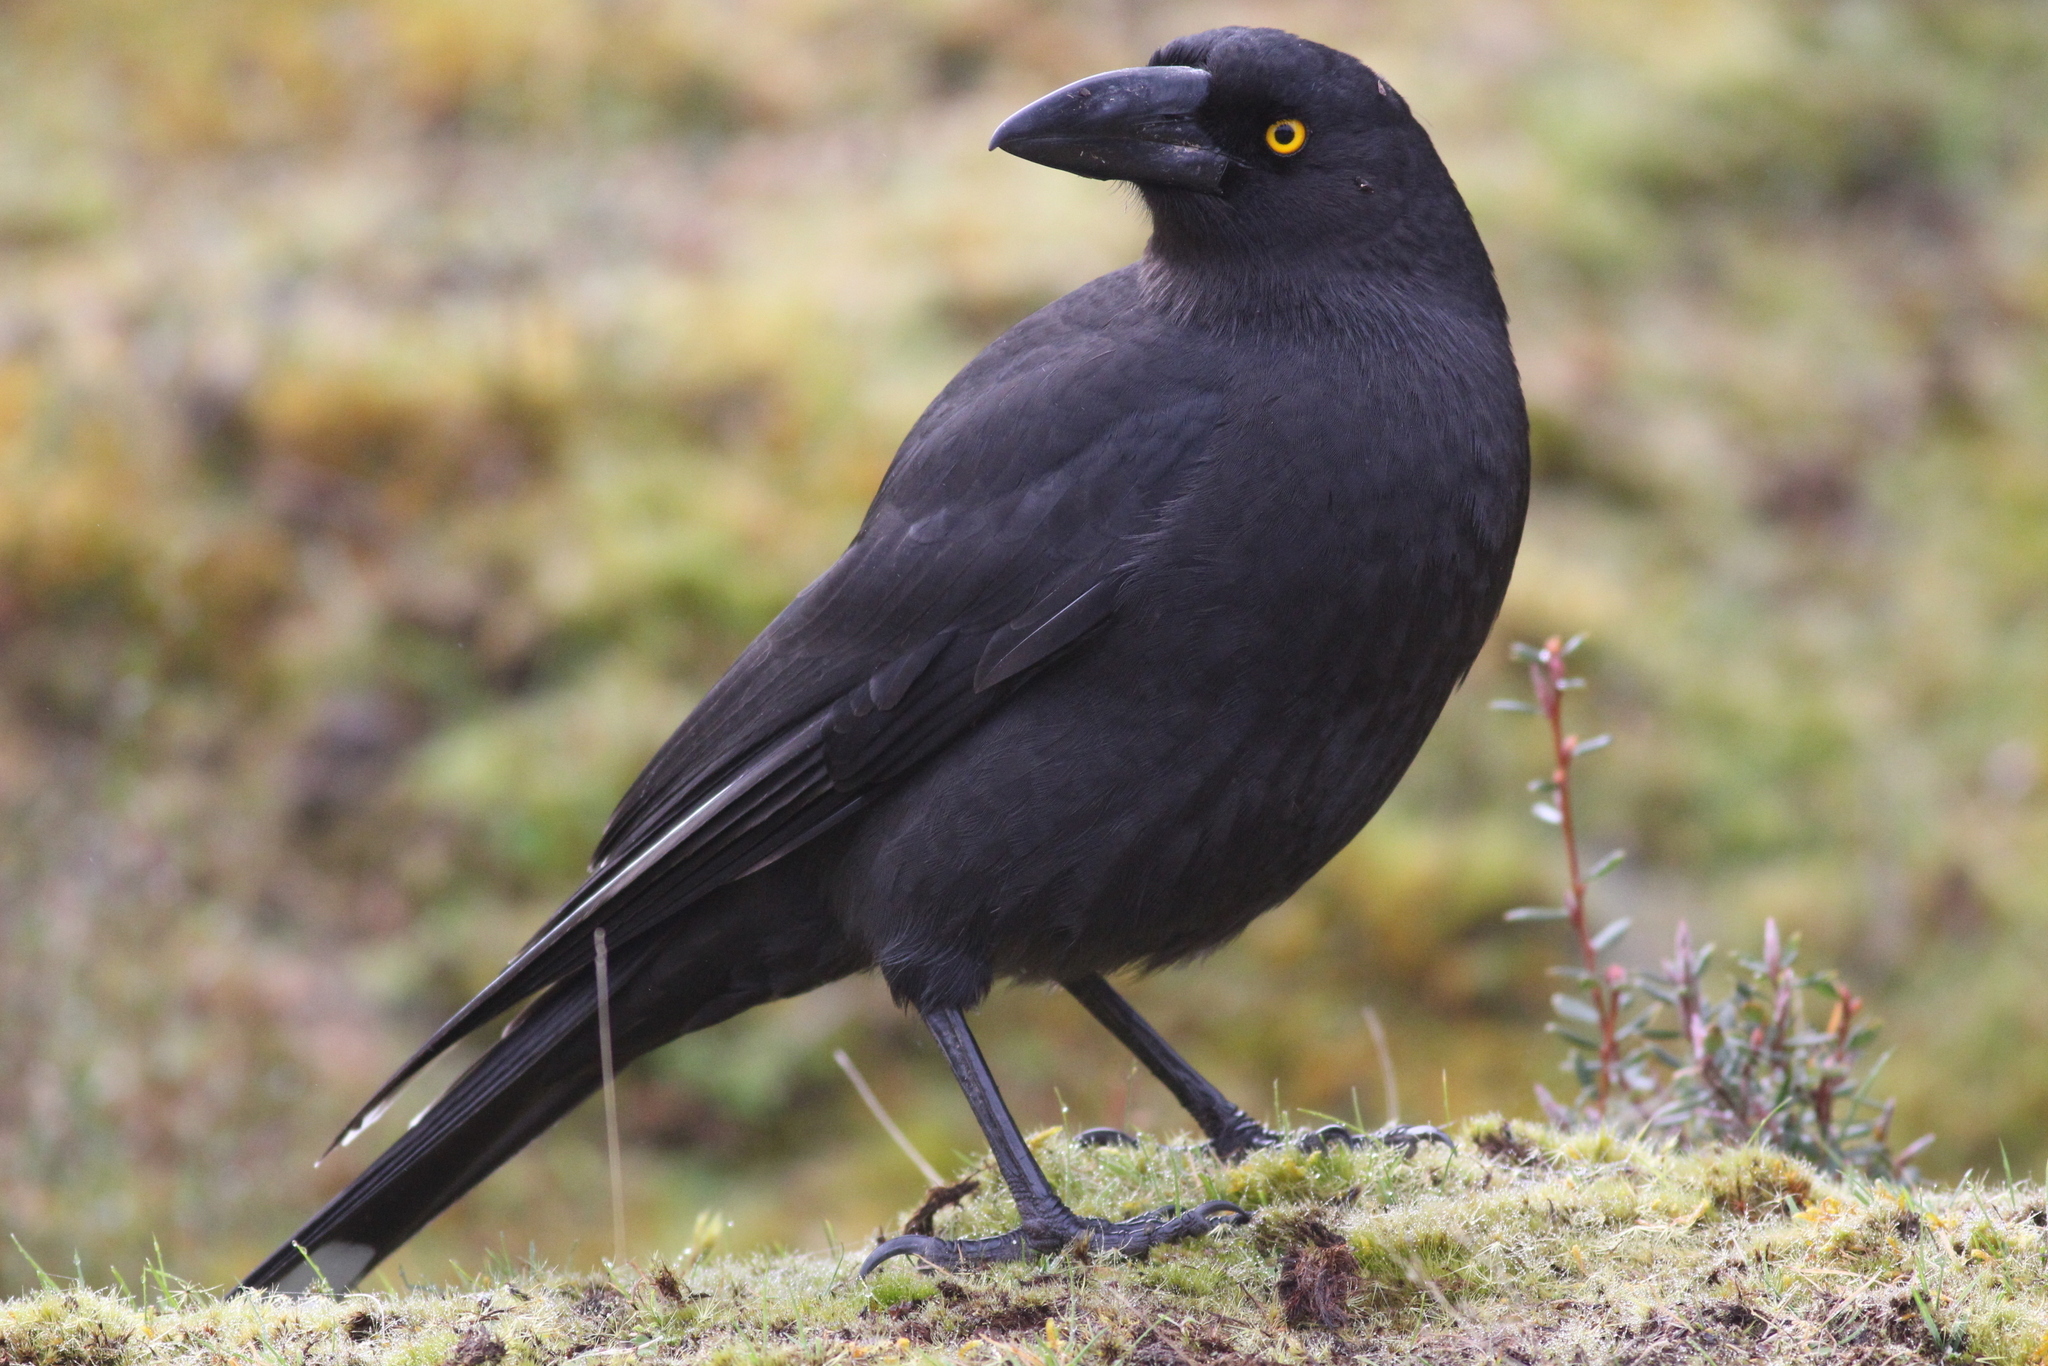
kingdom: Animalia
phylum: Chordata
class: Aves
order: Passeriformes
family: Cracticidae
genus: Strepera
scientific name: Strepera fuliginosa
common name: Black currawong
